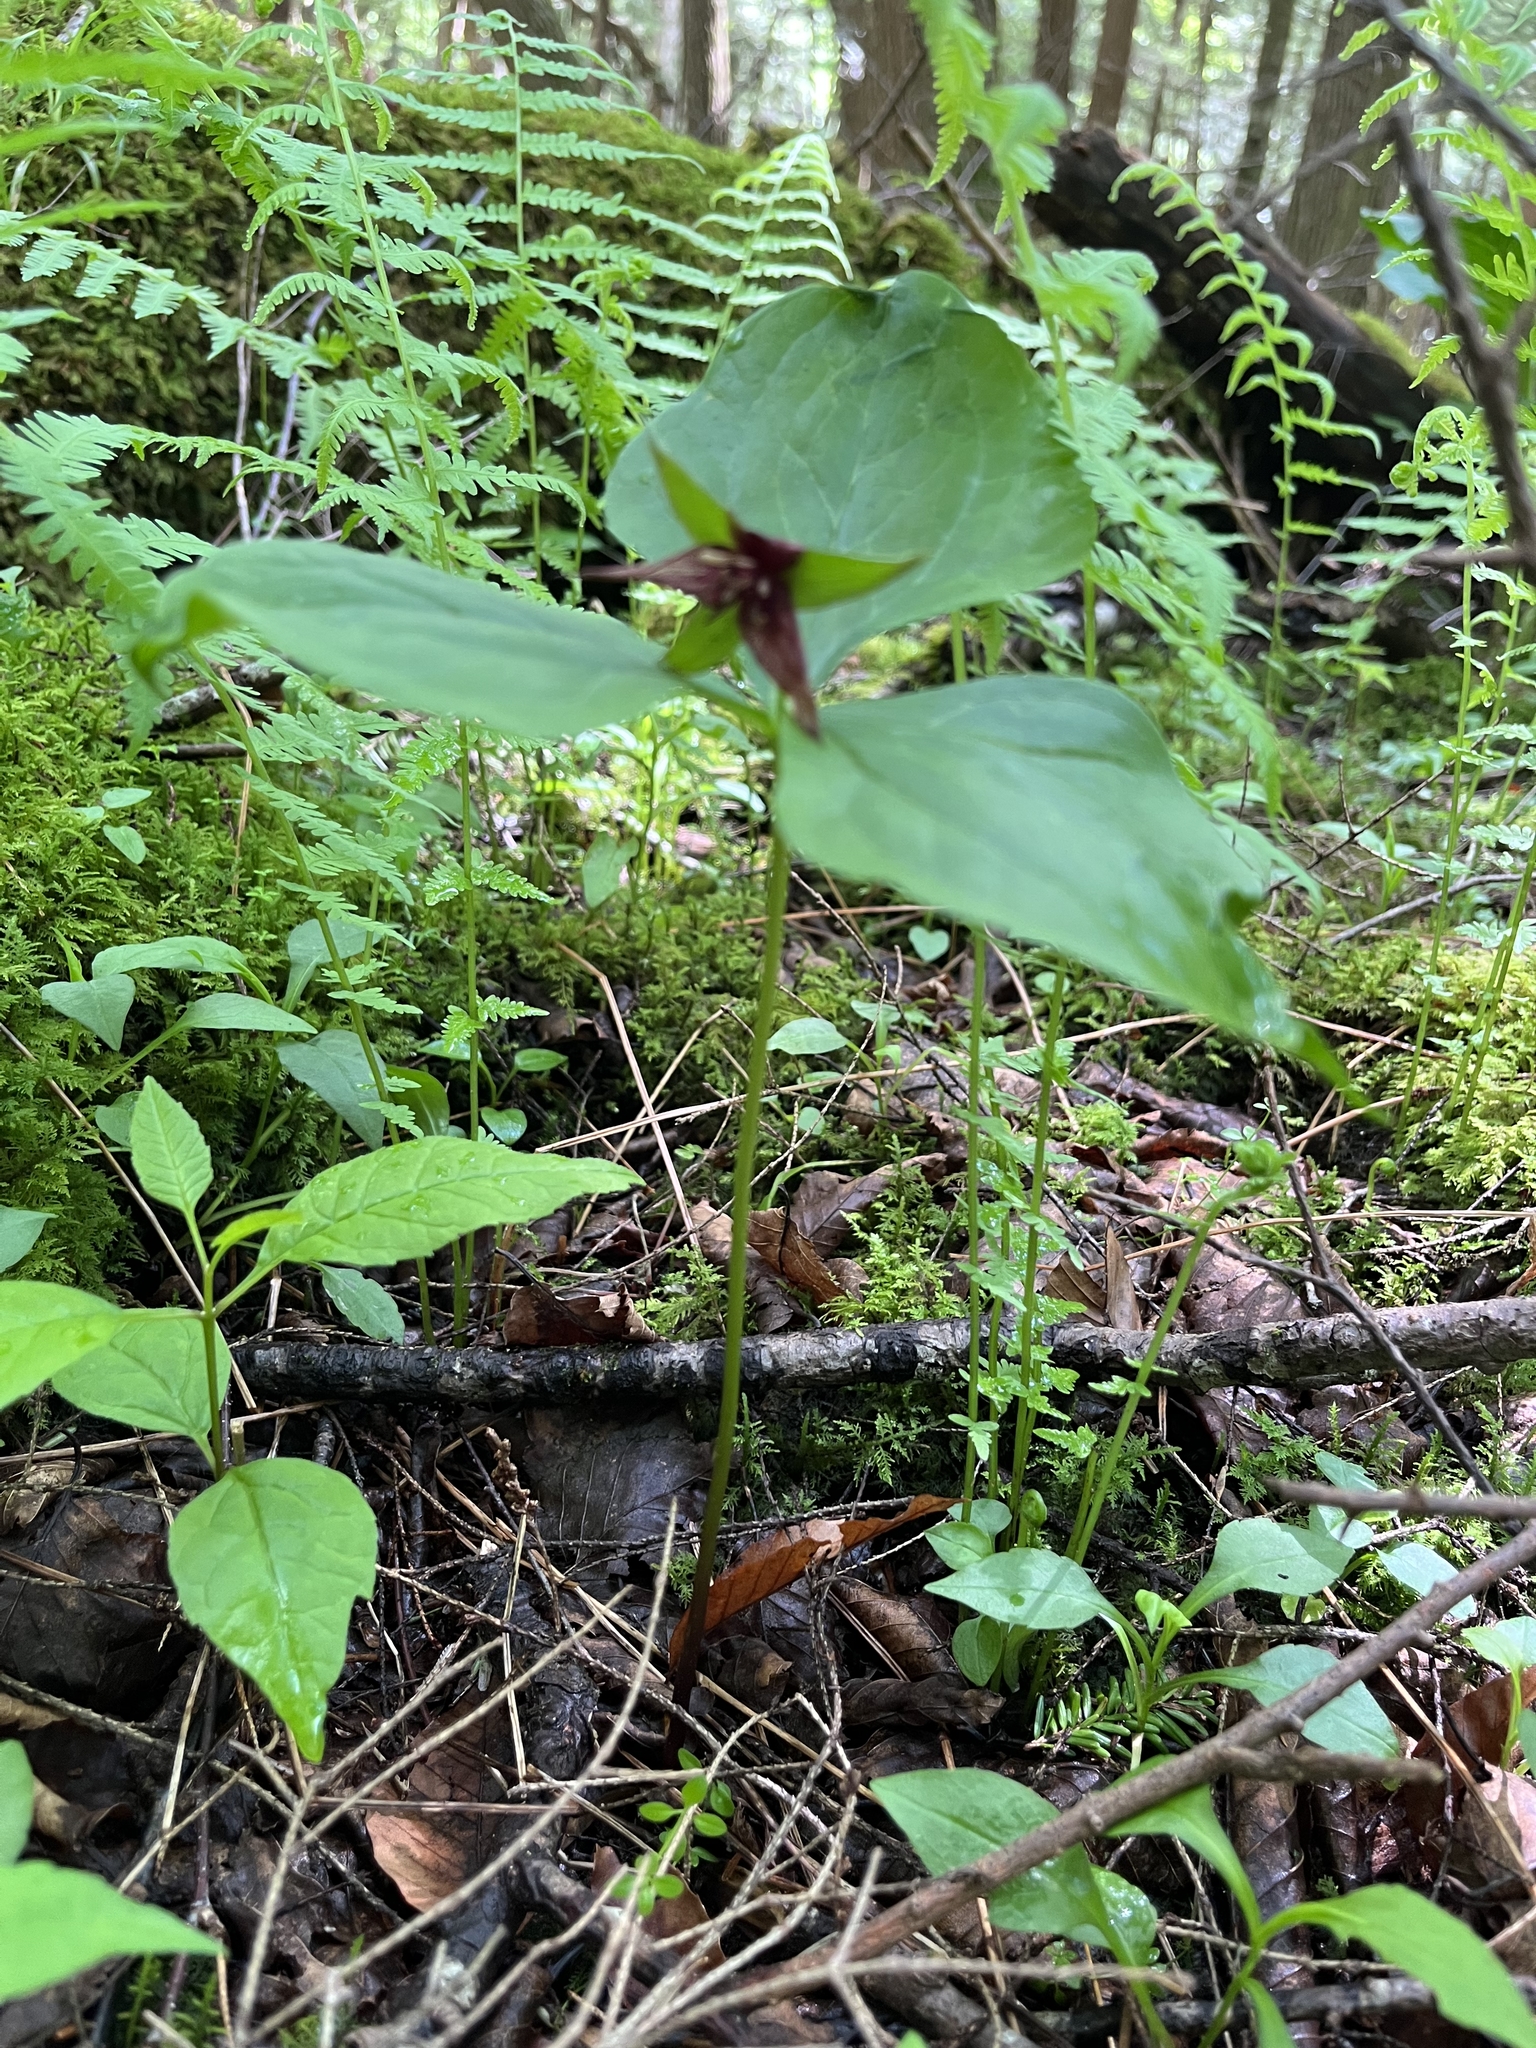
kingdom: Plantae
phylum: Tracheophyta
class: Liliopsida
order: Liliales
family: Melanthiaceae
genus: Trillium
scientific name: Trillium erectum
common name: Purple trillium
